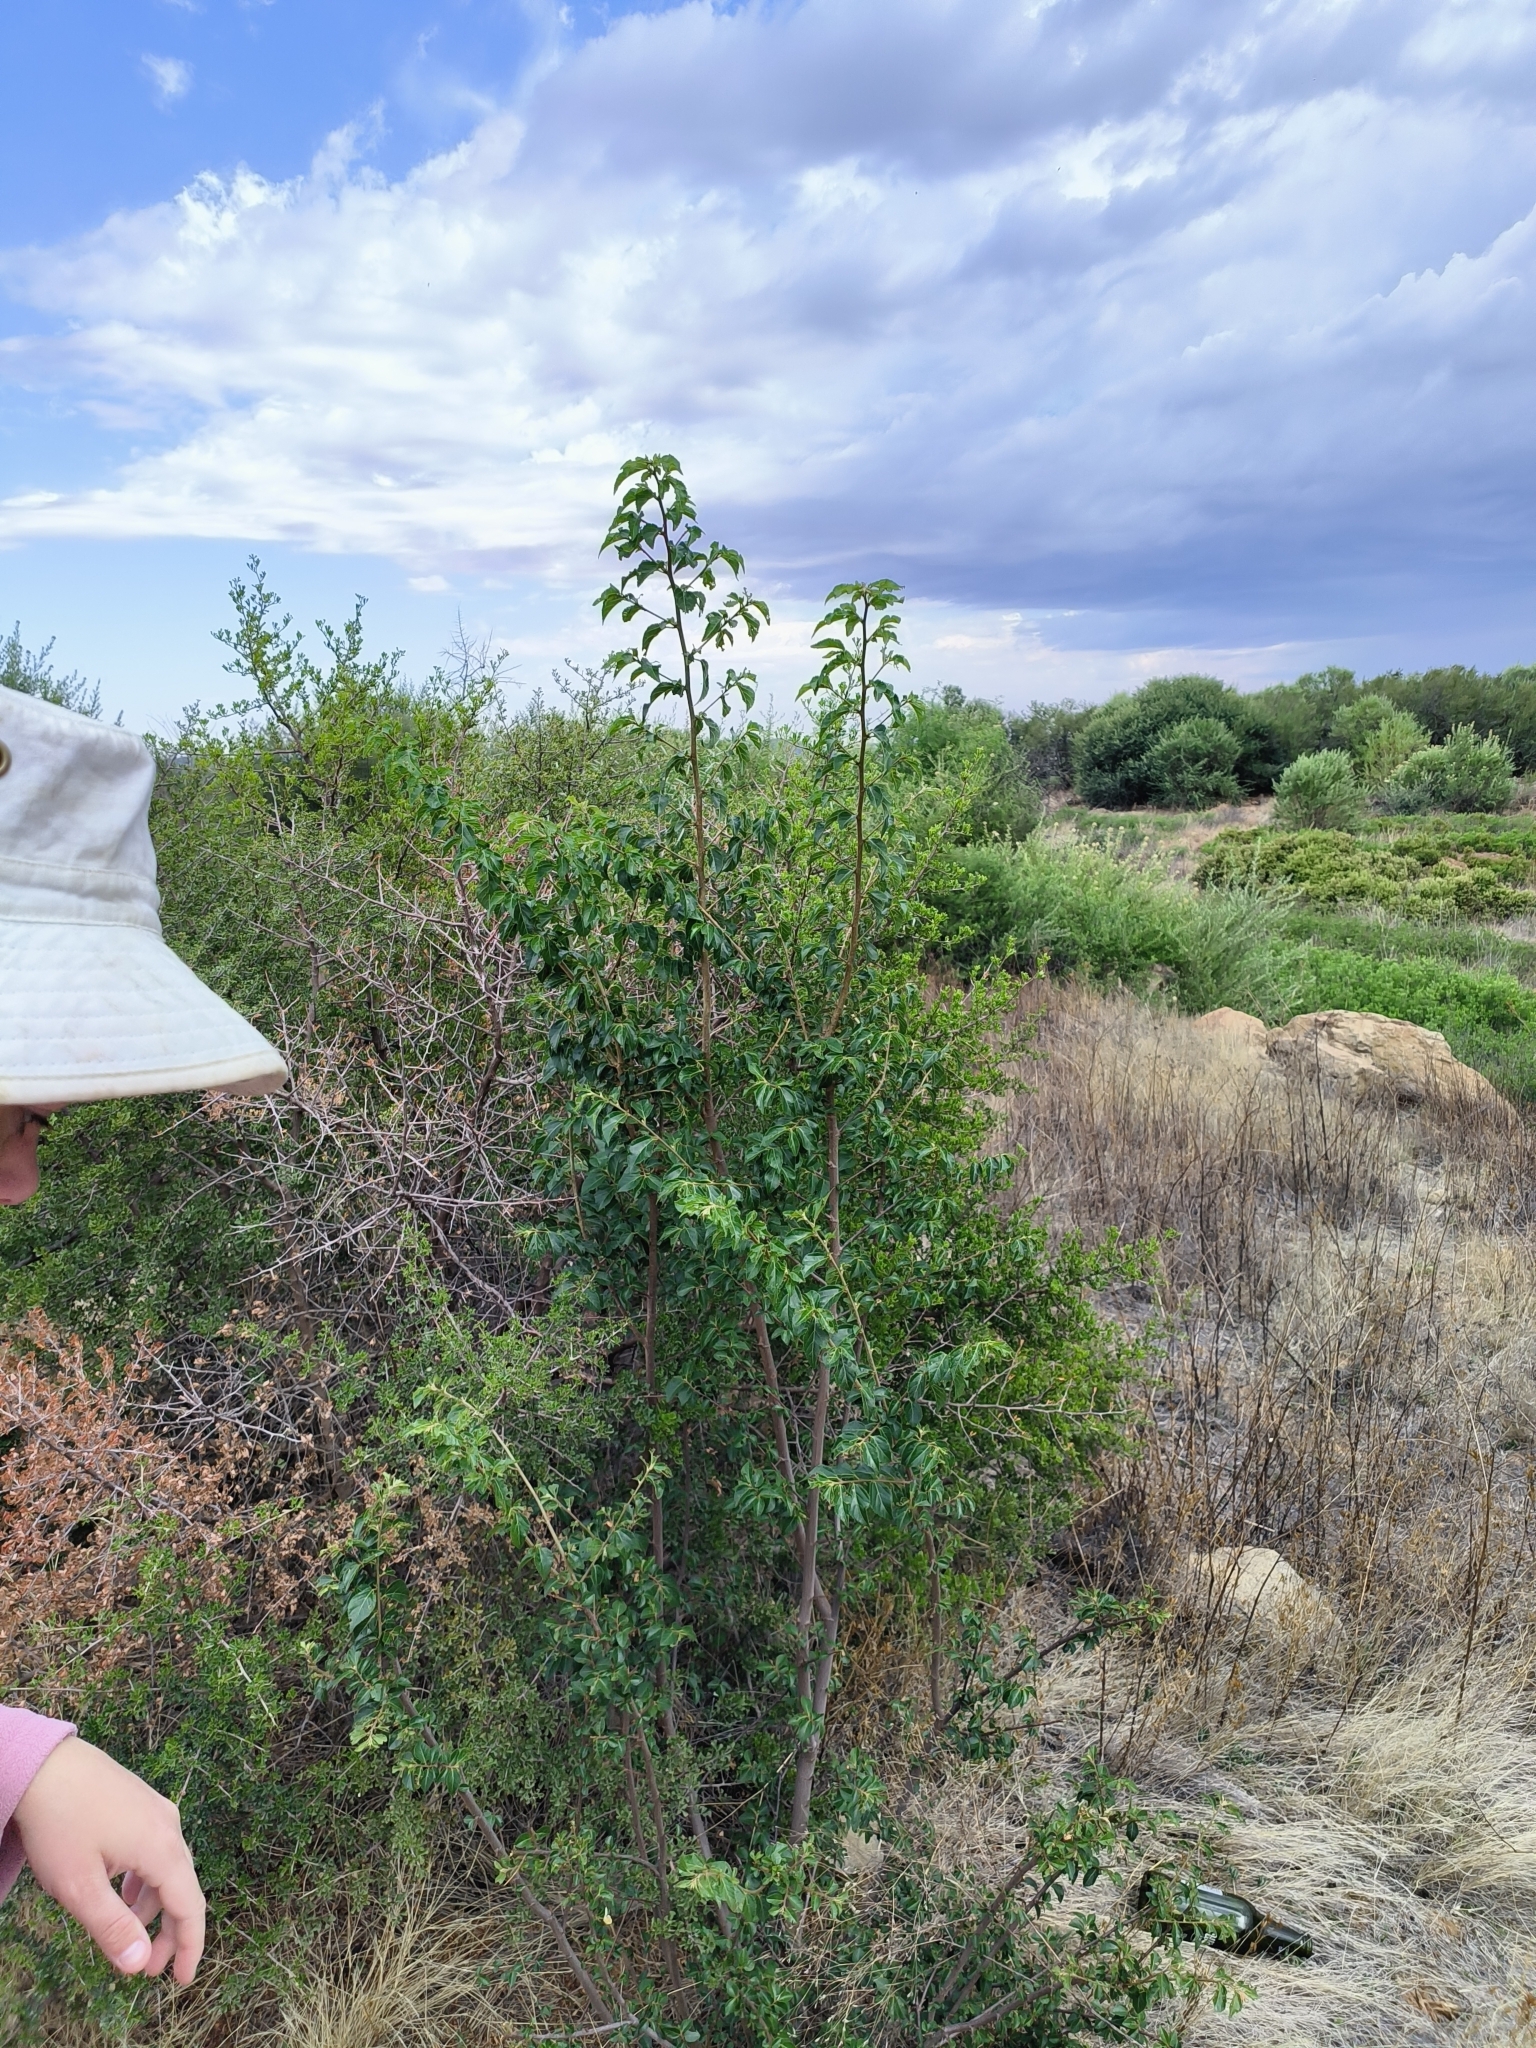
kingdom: Plantae
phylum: Tracheophyta
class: Magnoliopsida
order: Malvales
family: Malvaceae
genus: Grewia
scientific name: Grewia occidentalis
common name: Crossberry
